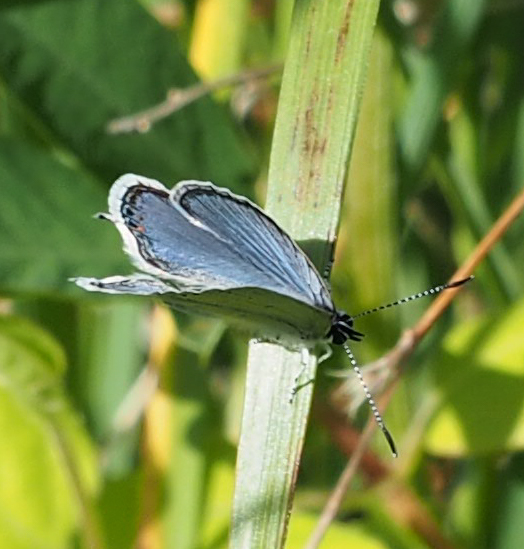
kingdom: Animalia
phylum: Arthropoda
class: Insecta
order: Lepidoptera
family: Lycaenidae
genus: Elkalyce
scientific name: Elkalyce comyntas
